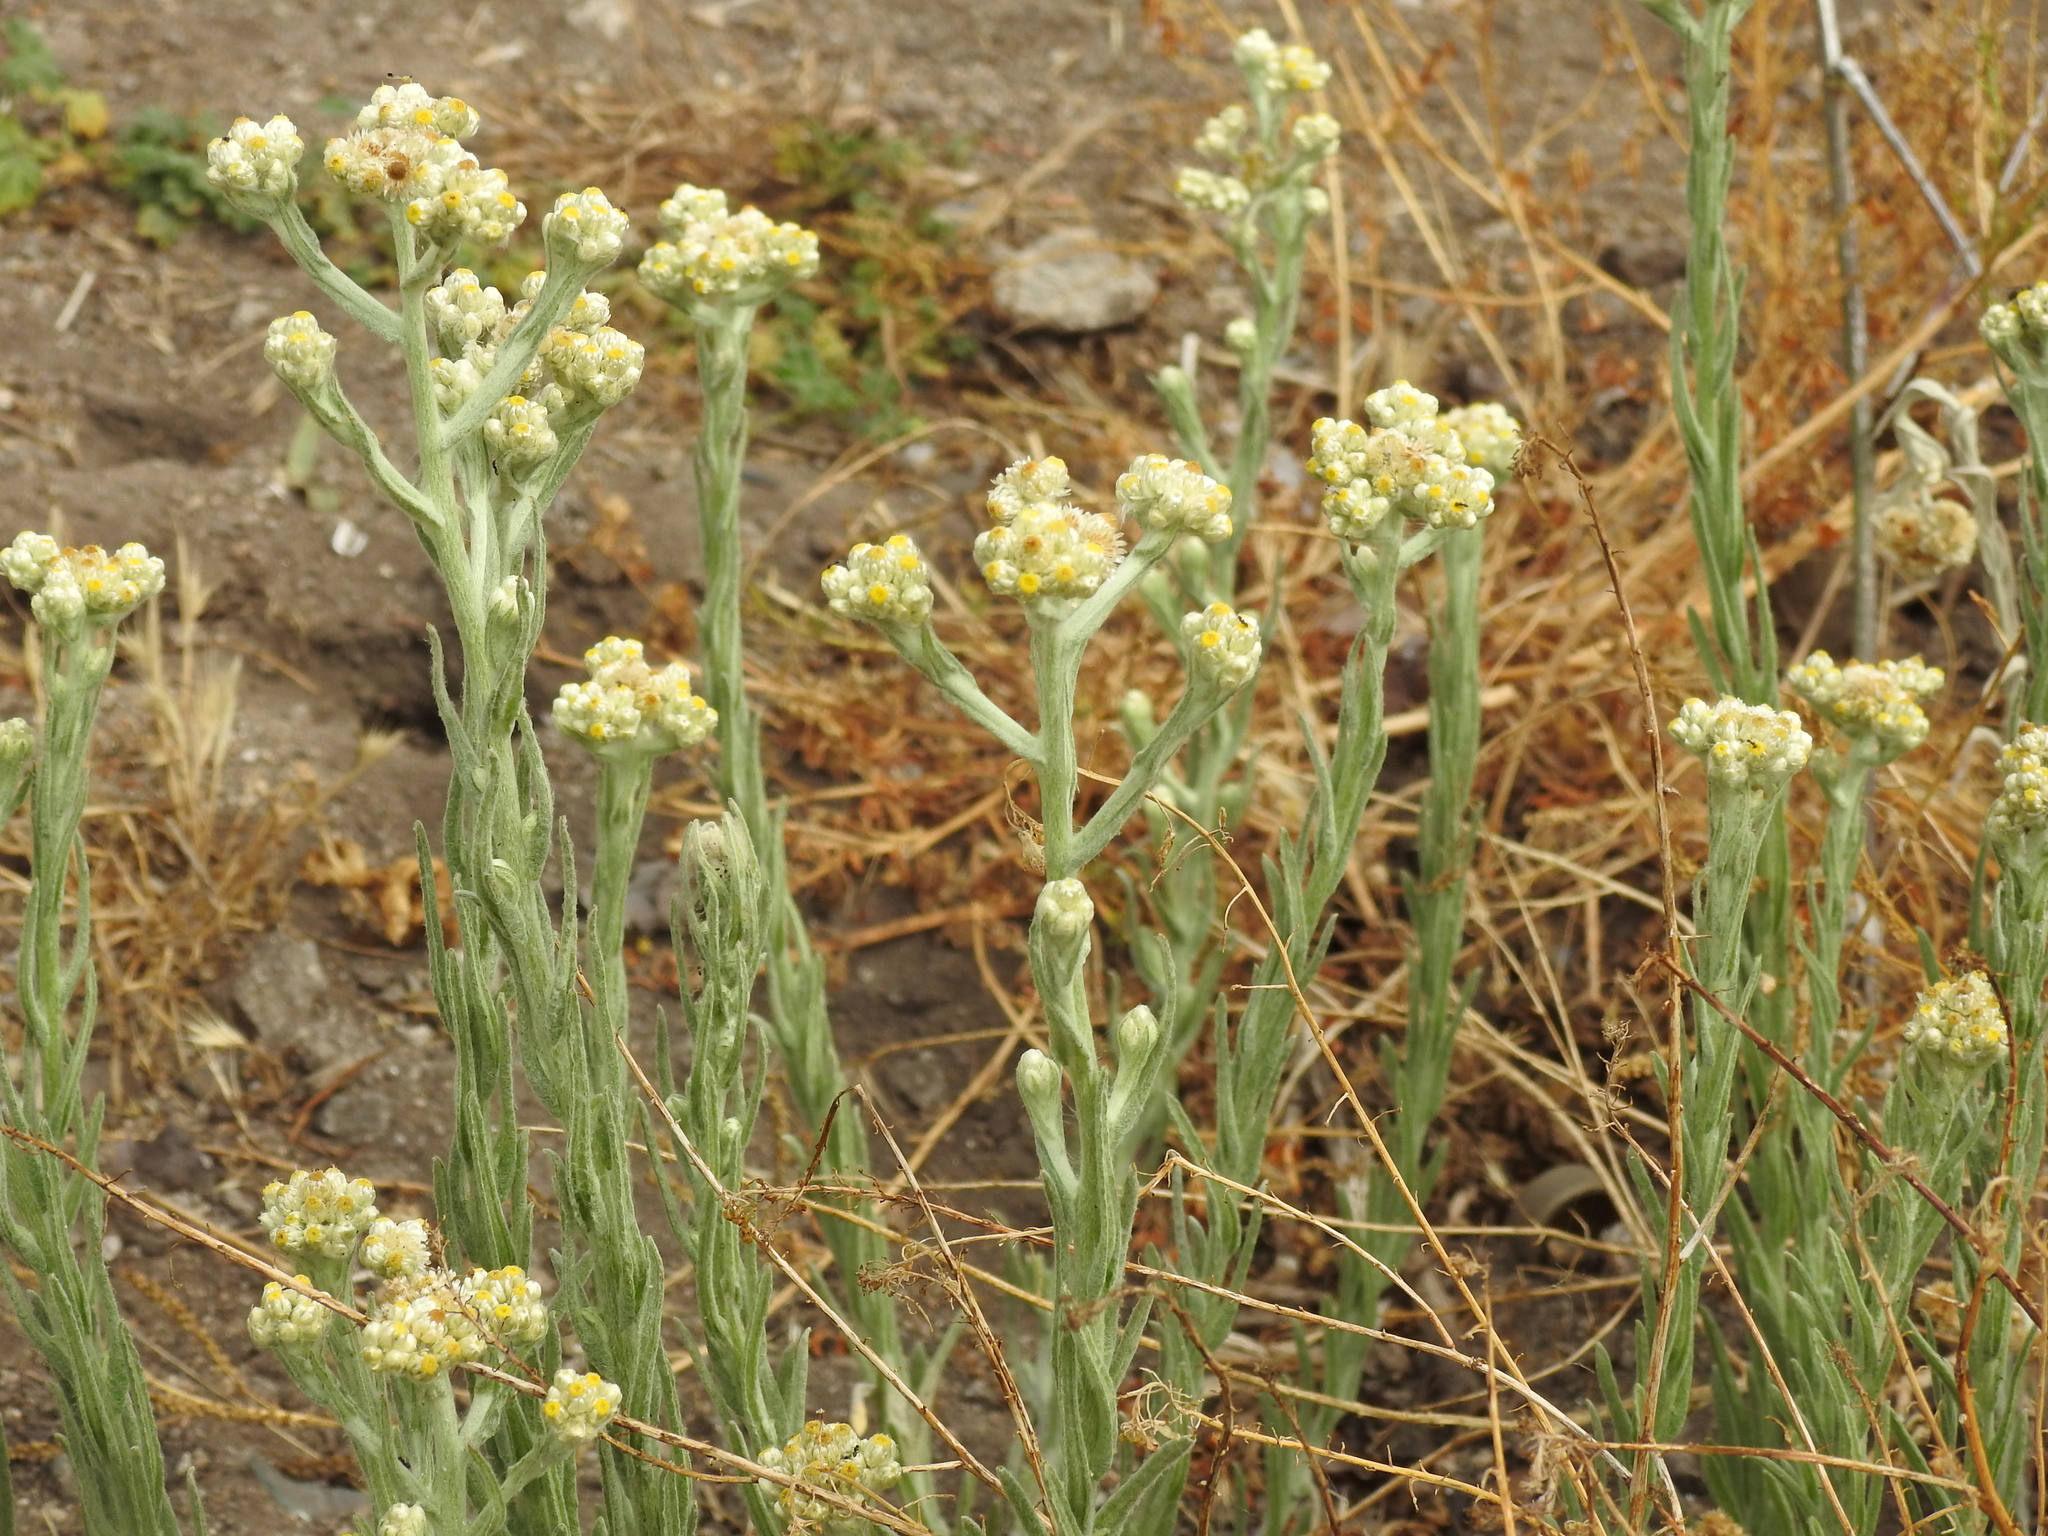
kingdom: Plantae
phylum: Tracheophyta
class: Magnoliopsida
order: Asterales
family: Asteraceae
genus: Pseudognaphalium
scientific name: Pseudognaphalium stramineum
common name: Cotton-batting-plant
